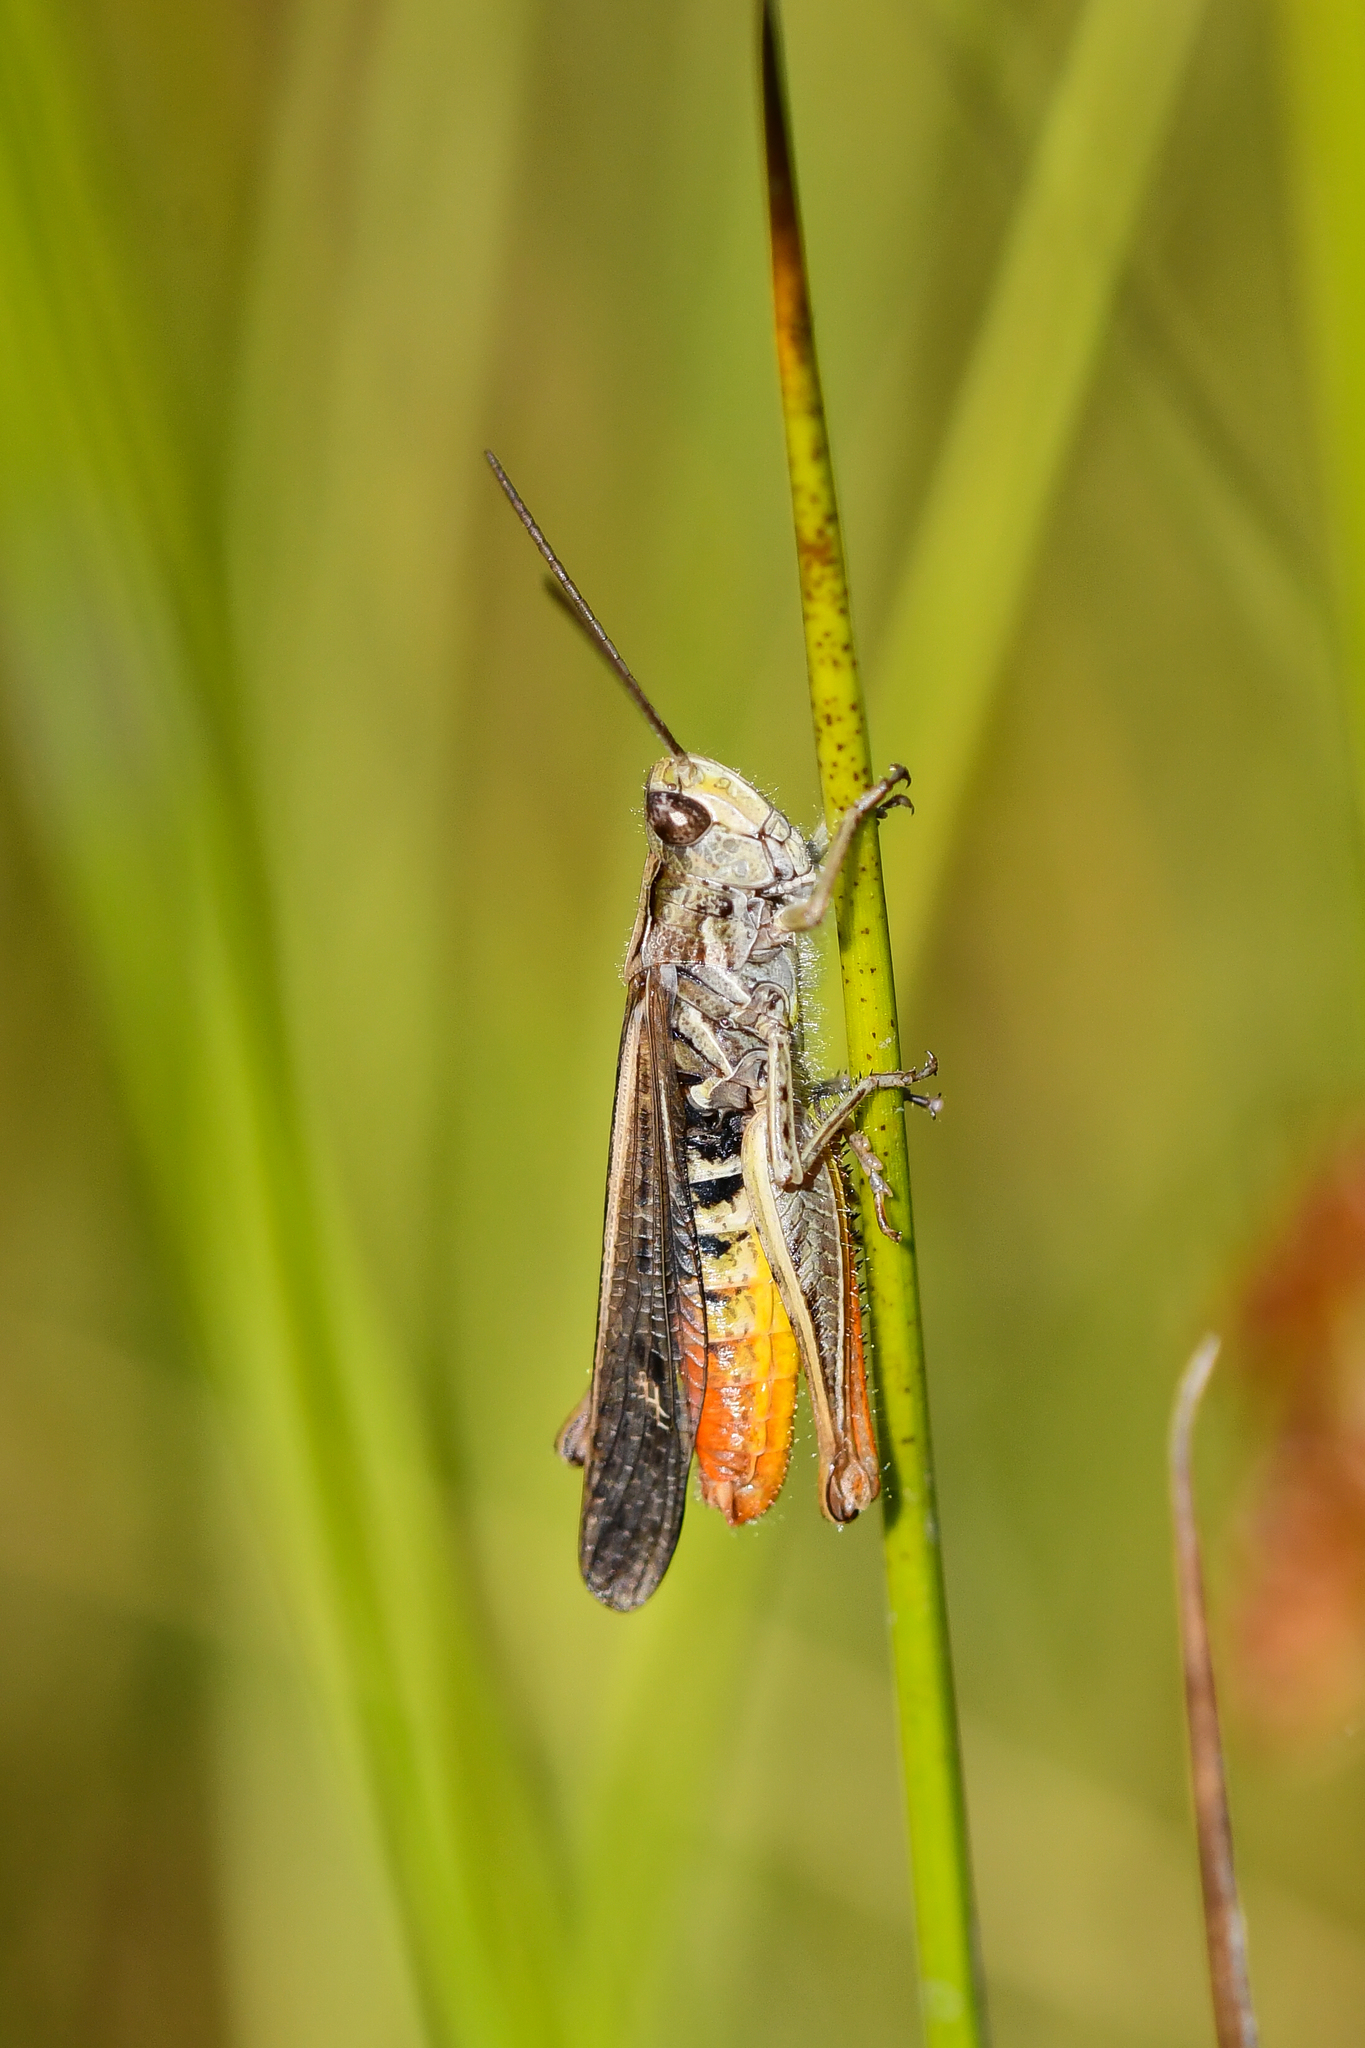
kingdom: Animalia
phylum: Arthropoda
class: Insecta
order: Orthoptera
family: Acrididae
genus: Chorthippus
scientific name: Chorthippus brunneus
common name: Field grasshopper
